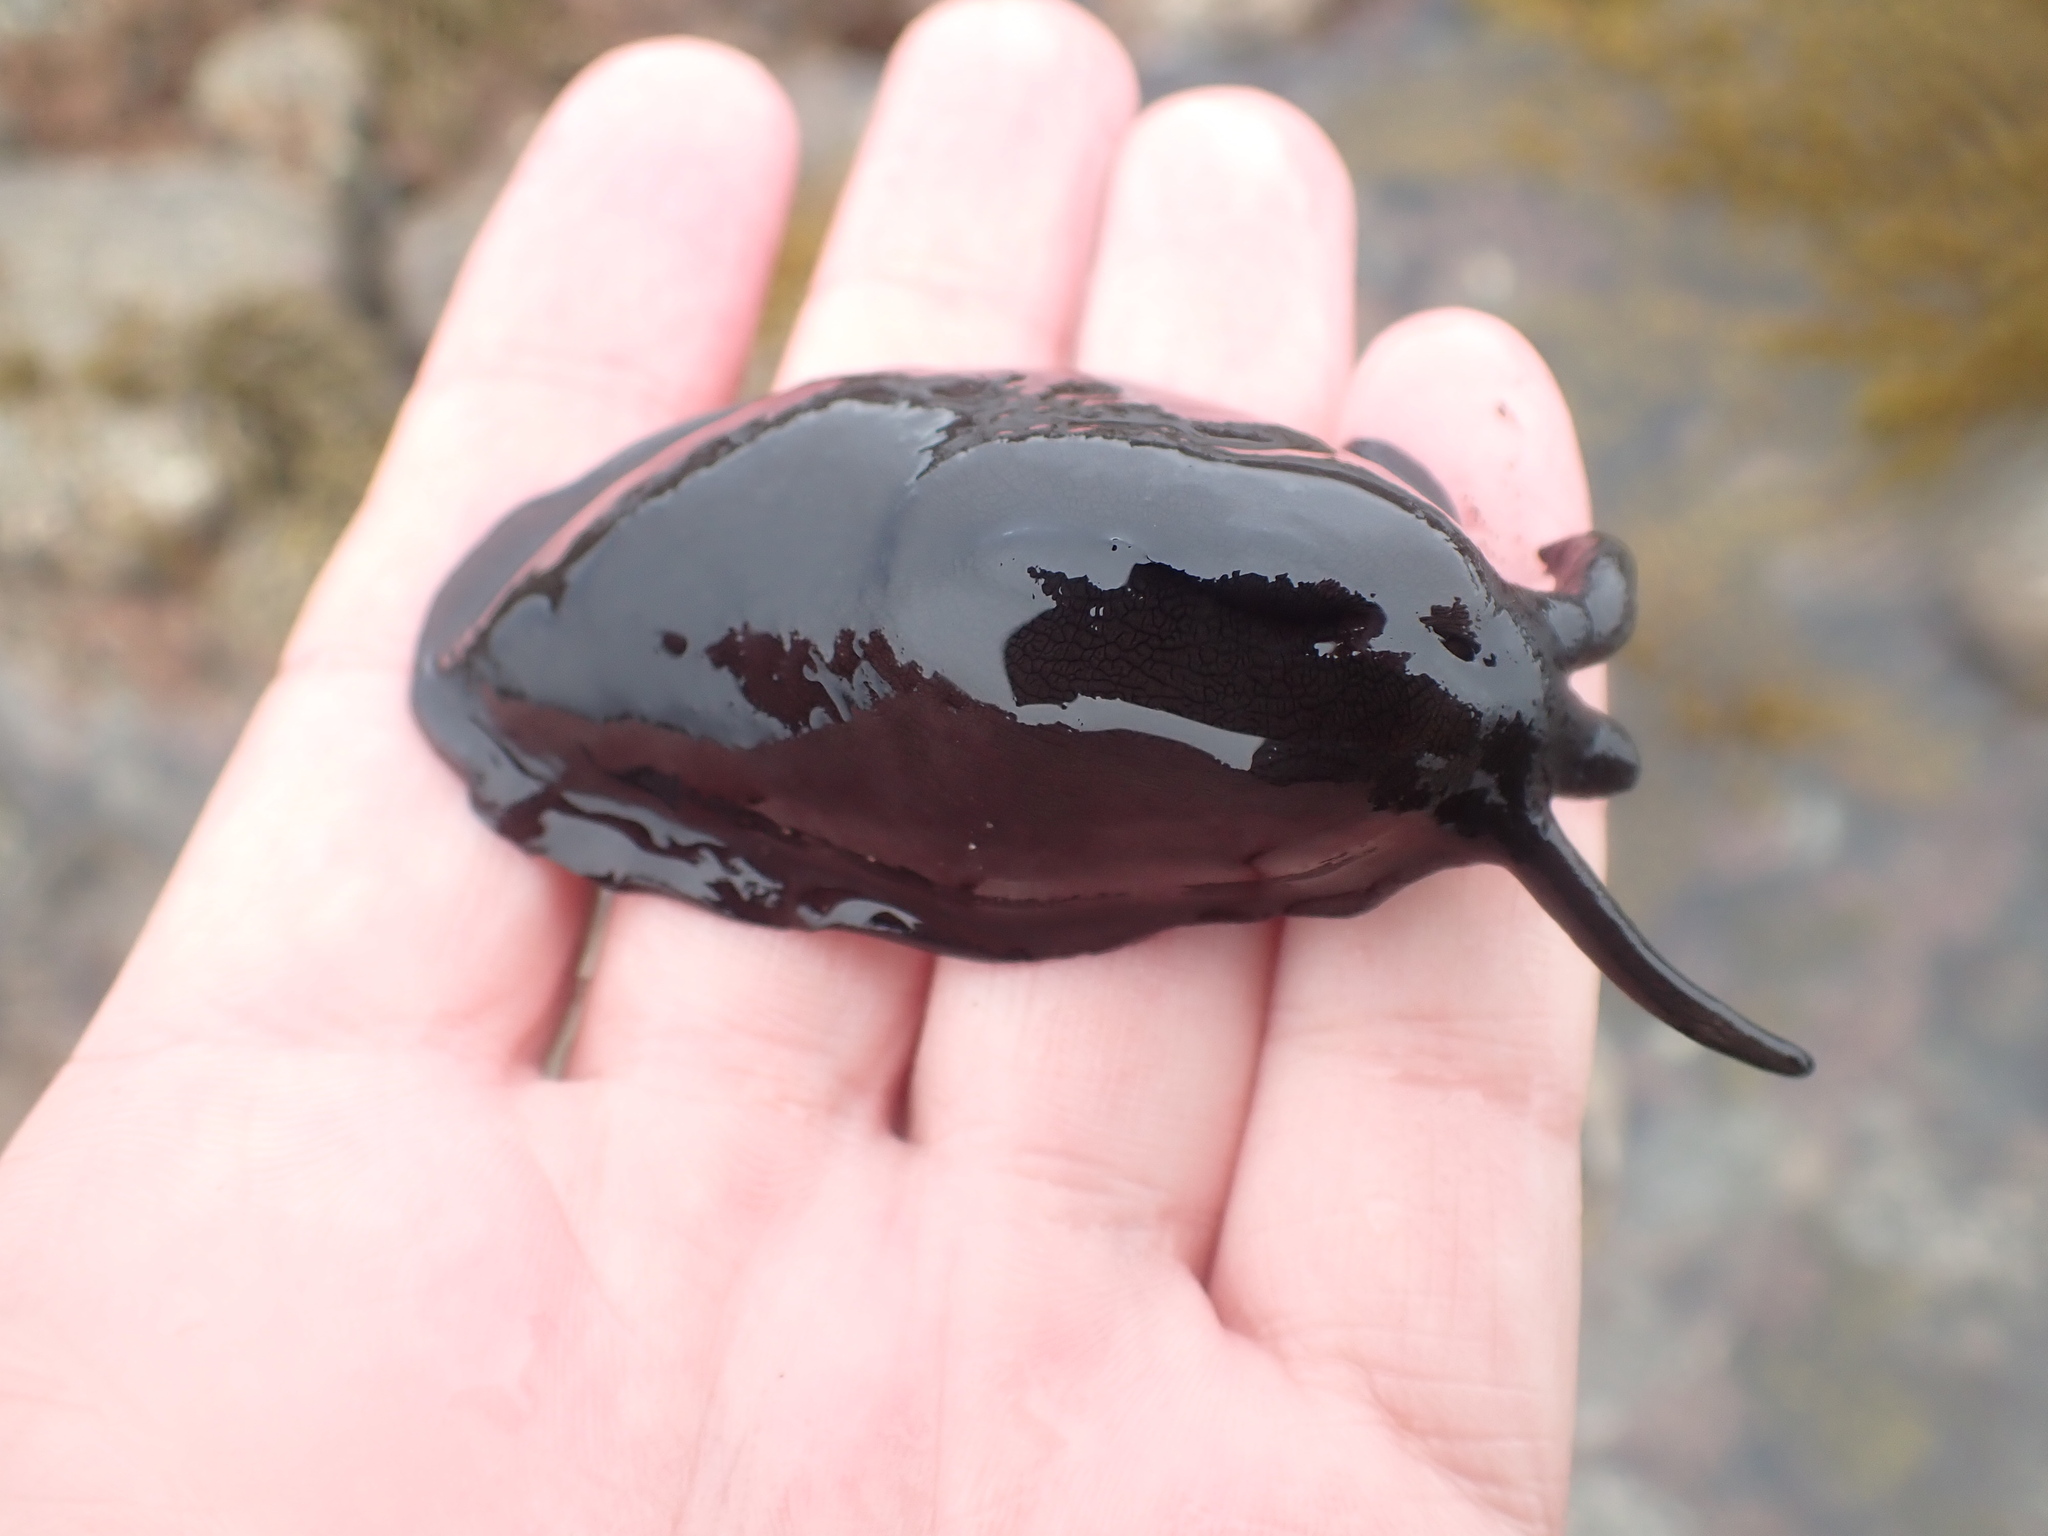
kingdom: Animalia
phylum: Mollusca
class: Gastropoda
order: Lepetellida
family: Fissurellidae
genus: Scutus
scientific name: Scutus breviculus
